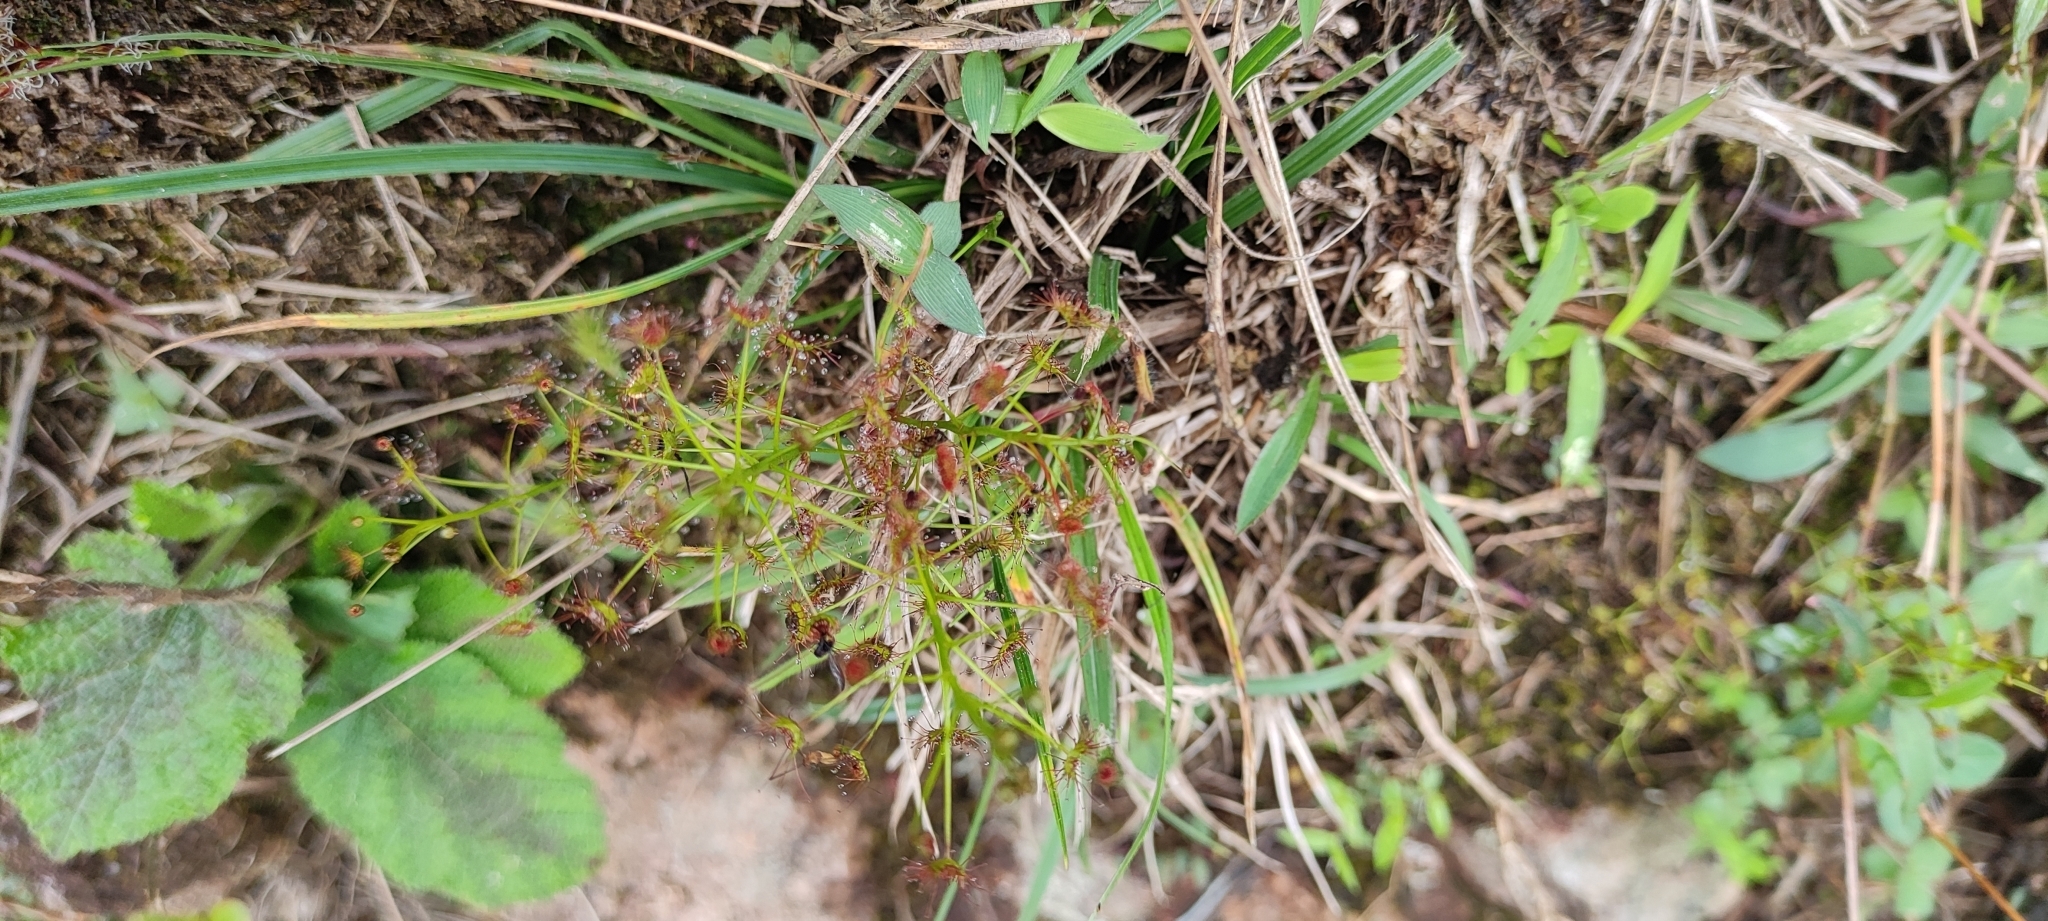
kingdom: Plantae
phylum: Tracheophyta
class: Magnoliopsida
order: Caryophyllales
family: Droseraceae
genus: Drosera
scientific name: Drosera peltata
